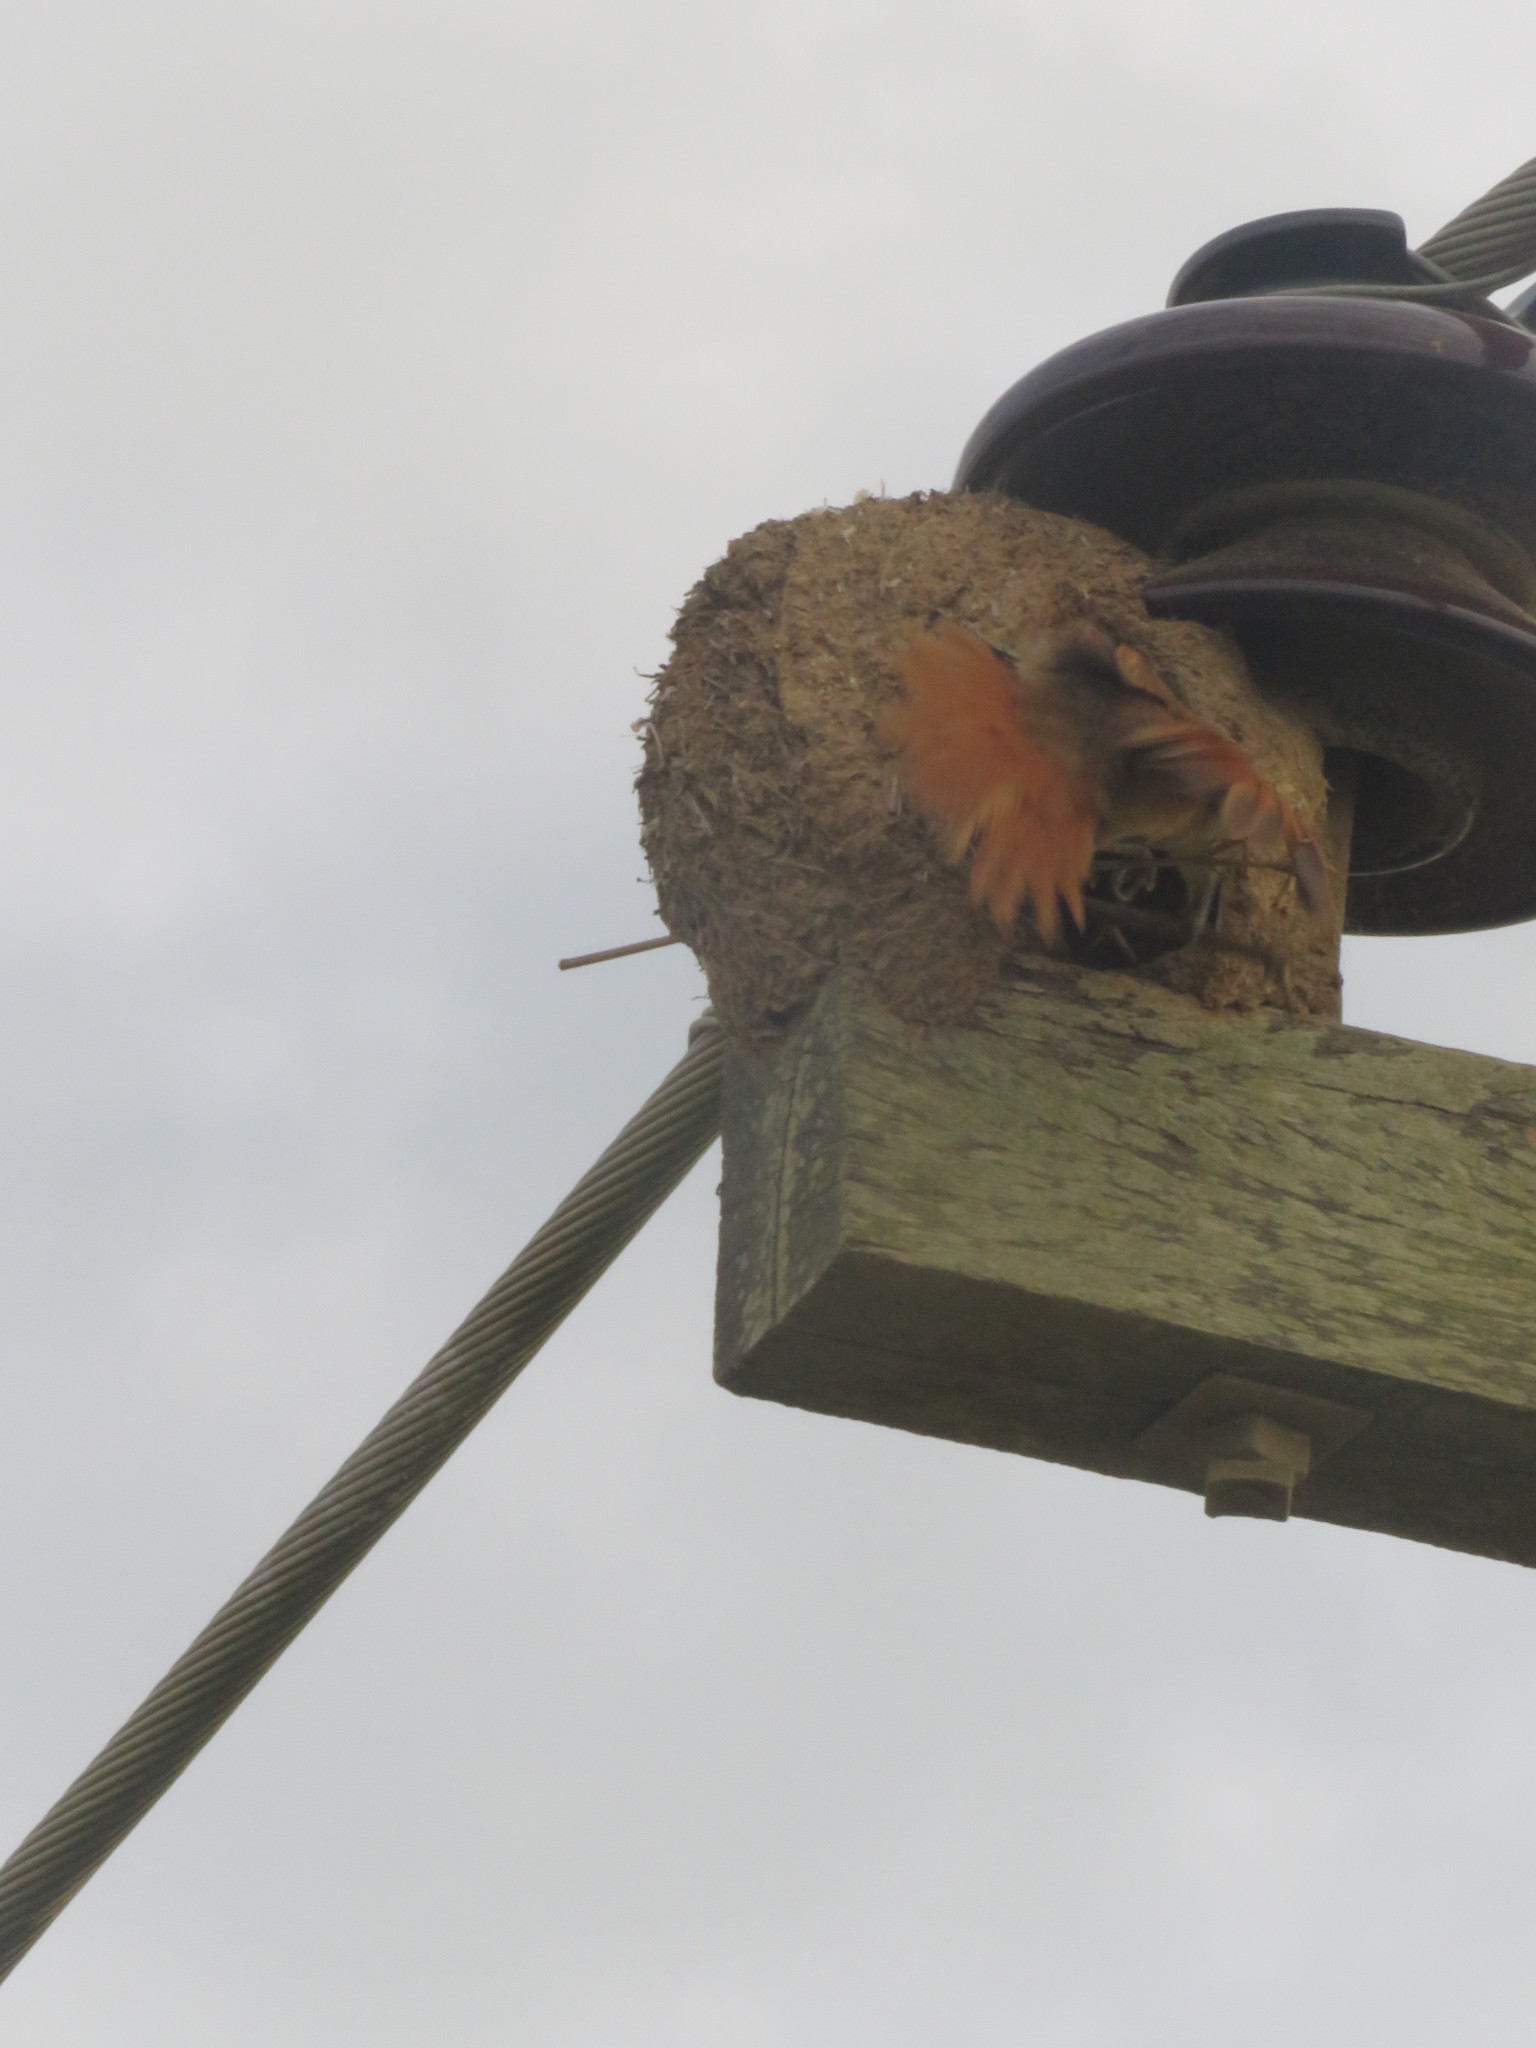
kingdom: Animalia
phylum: Chordata
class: Aves
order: Passeriformes
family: Furnariidae
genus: Phacellodomus
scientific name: Phacellodomus rufifrons
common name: Rufous-fronted thornbird
